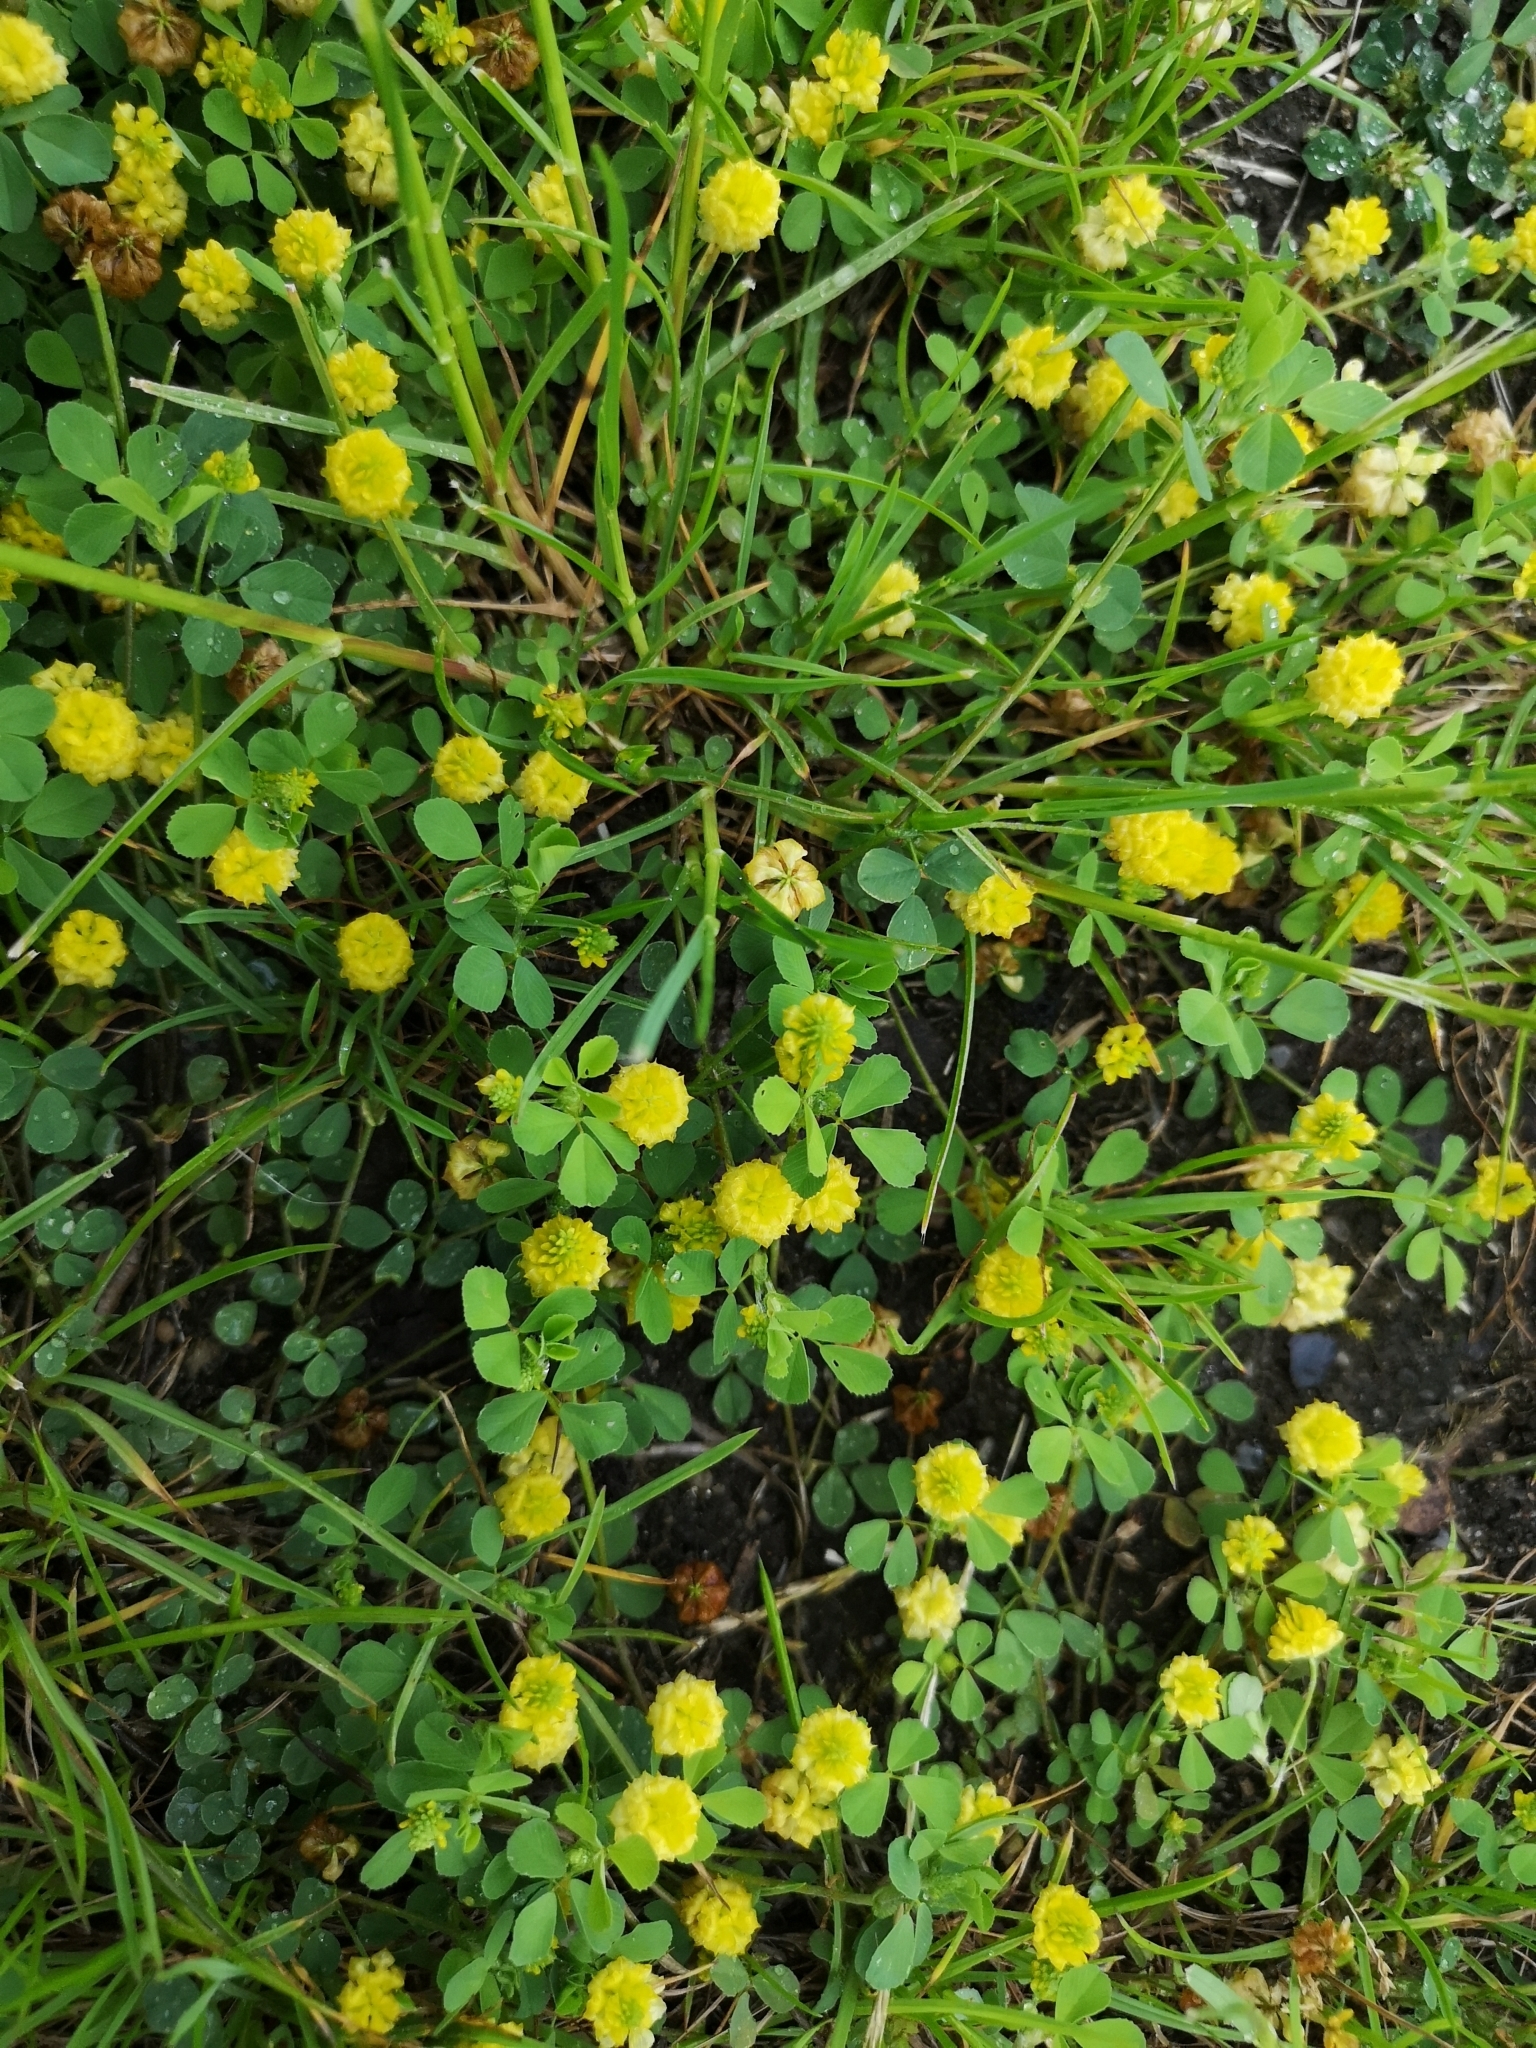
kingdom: Plantae
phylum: Tracheophyta
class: Magnoliopsida
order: Fabales
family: Fabaceae
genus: Trifolium
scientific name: Trifolium campestre
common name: Field clover
